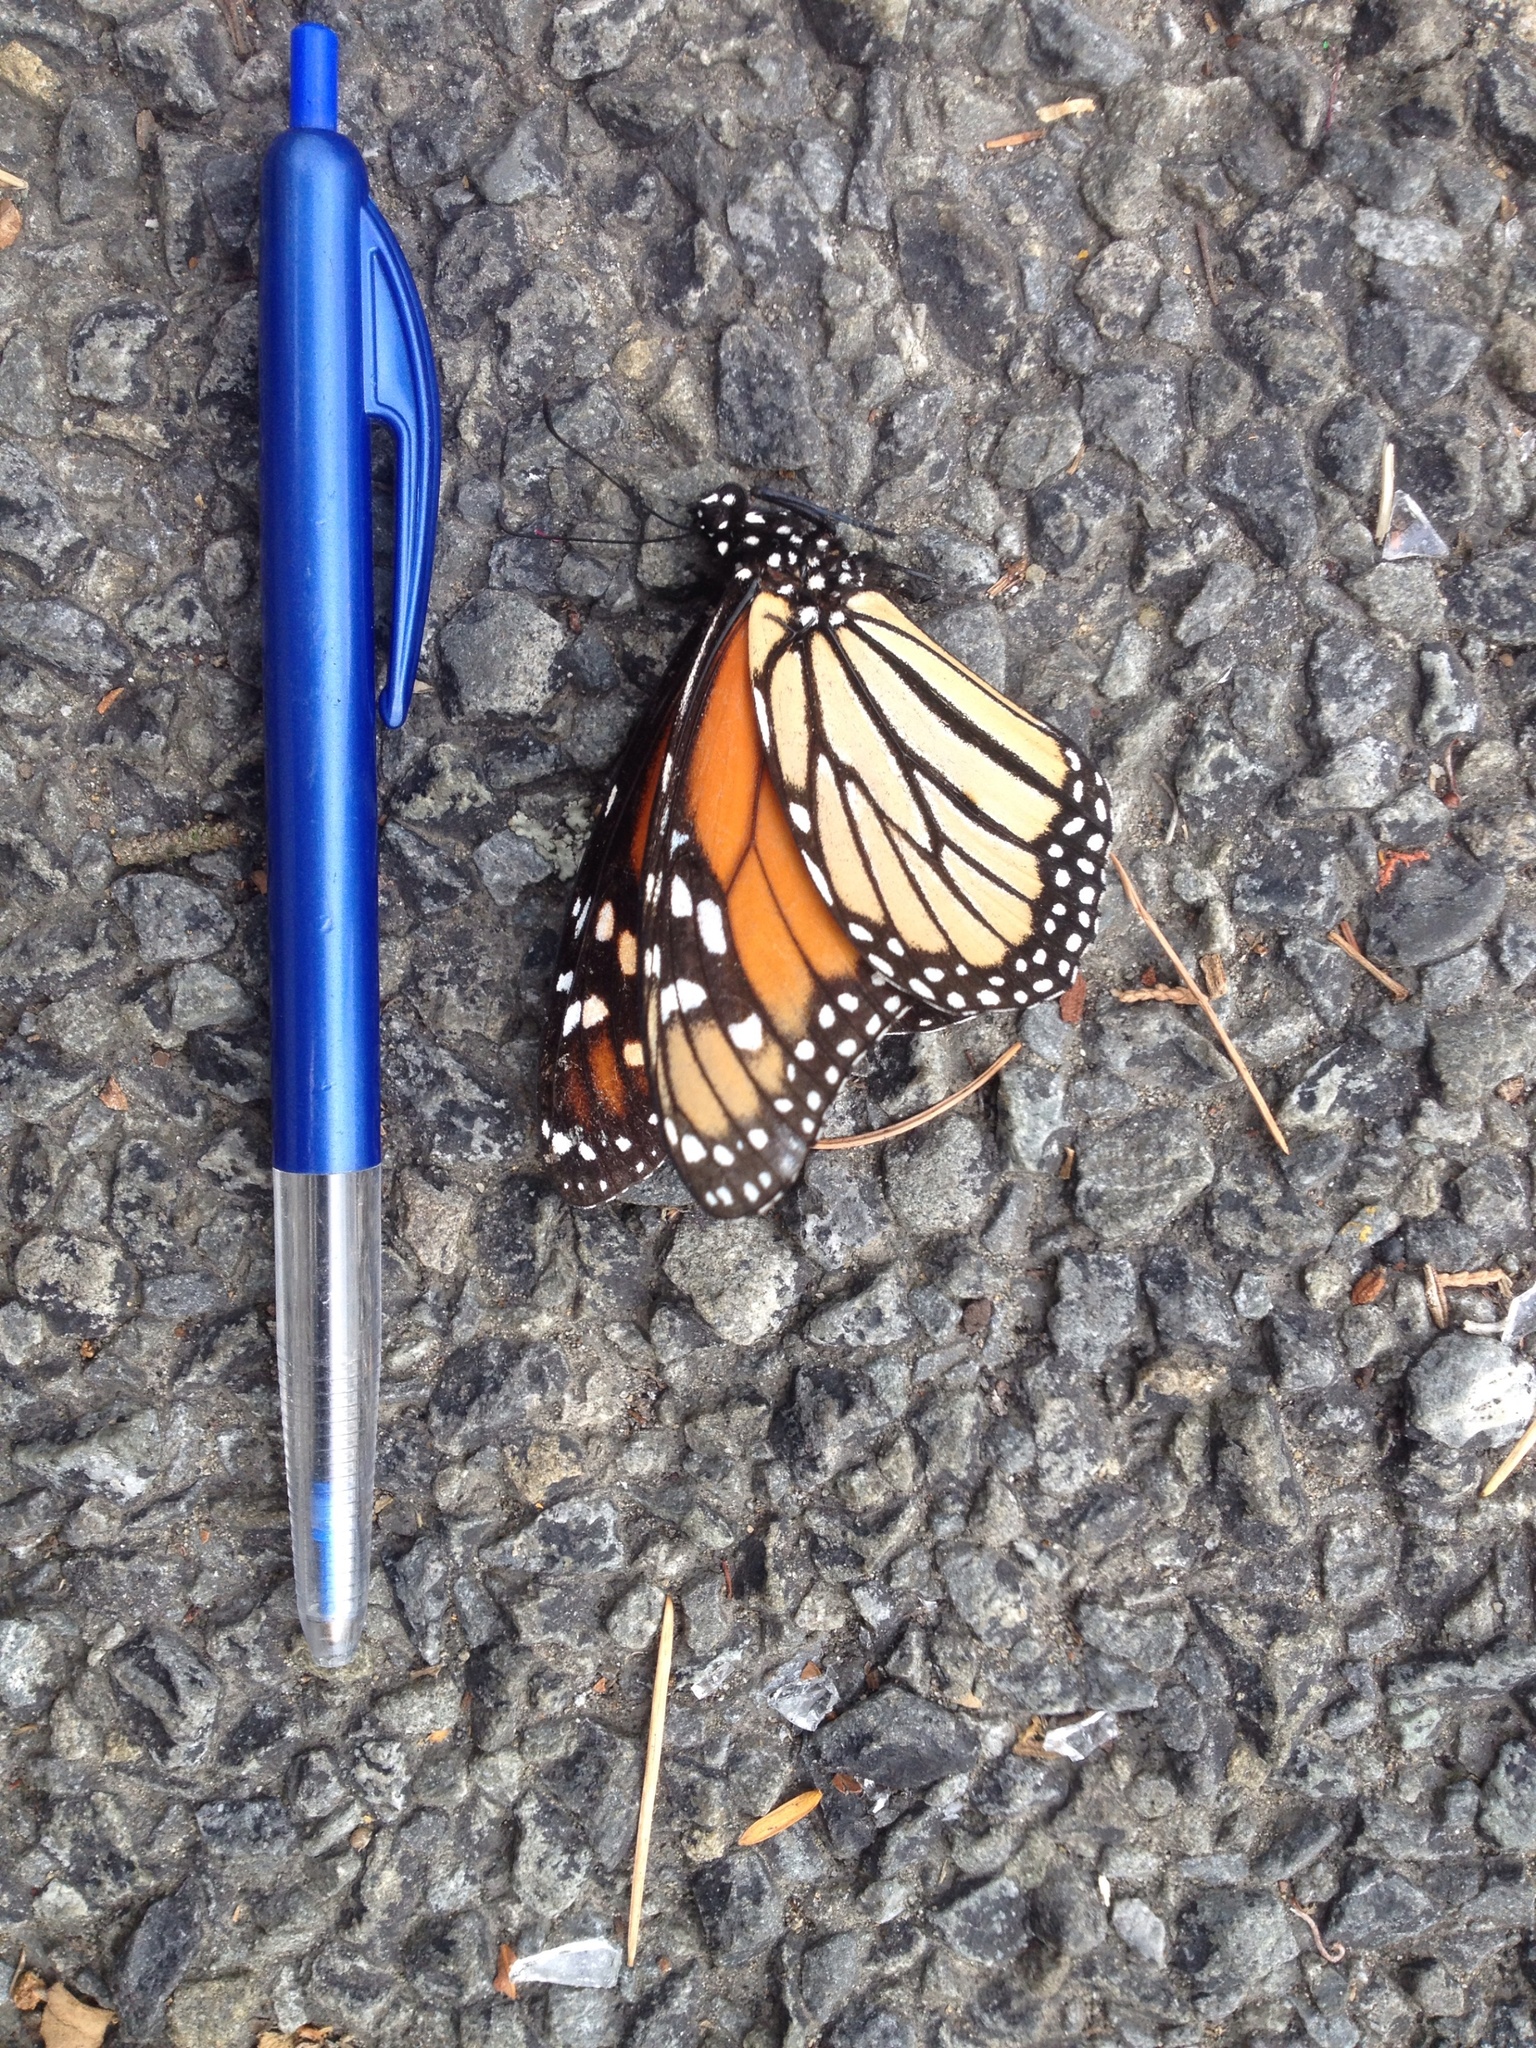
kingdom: Animalia
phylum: Arthropoda
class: Insecta
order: Lepidoptera
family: Nymphalidae
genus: Danaus
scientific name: Danaus plexippus
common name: Monarch
